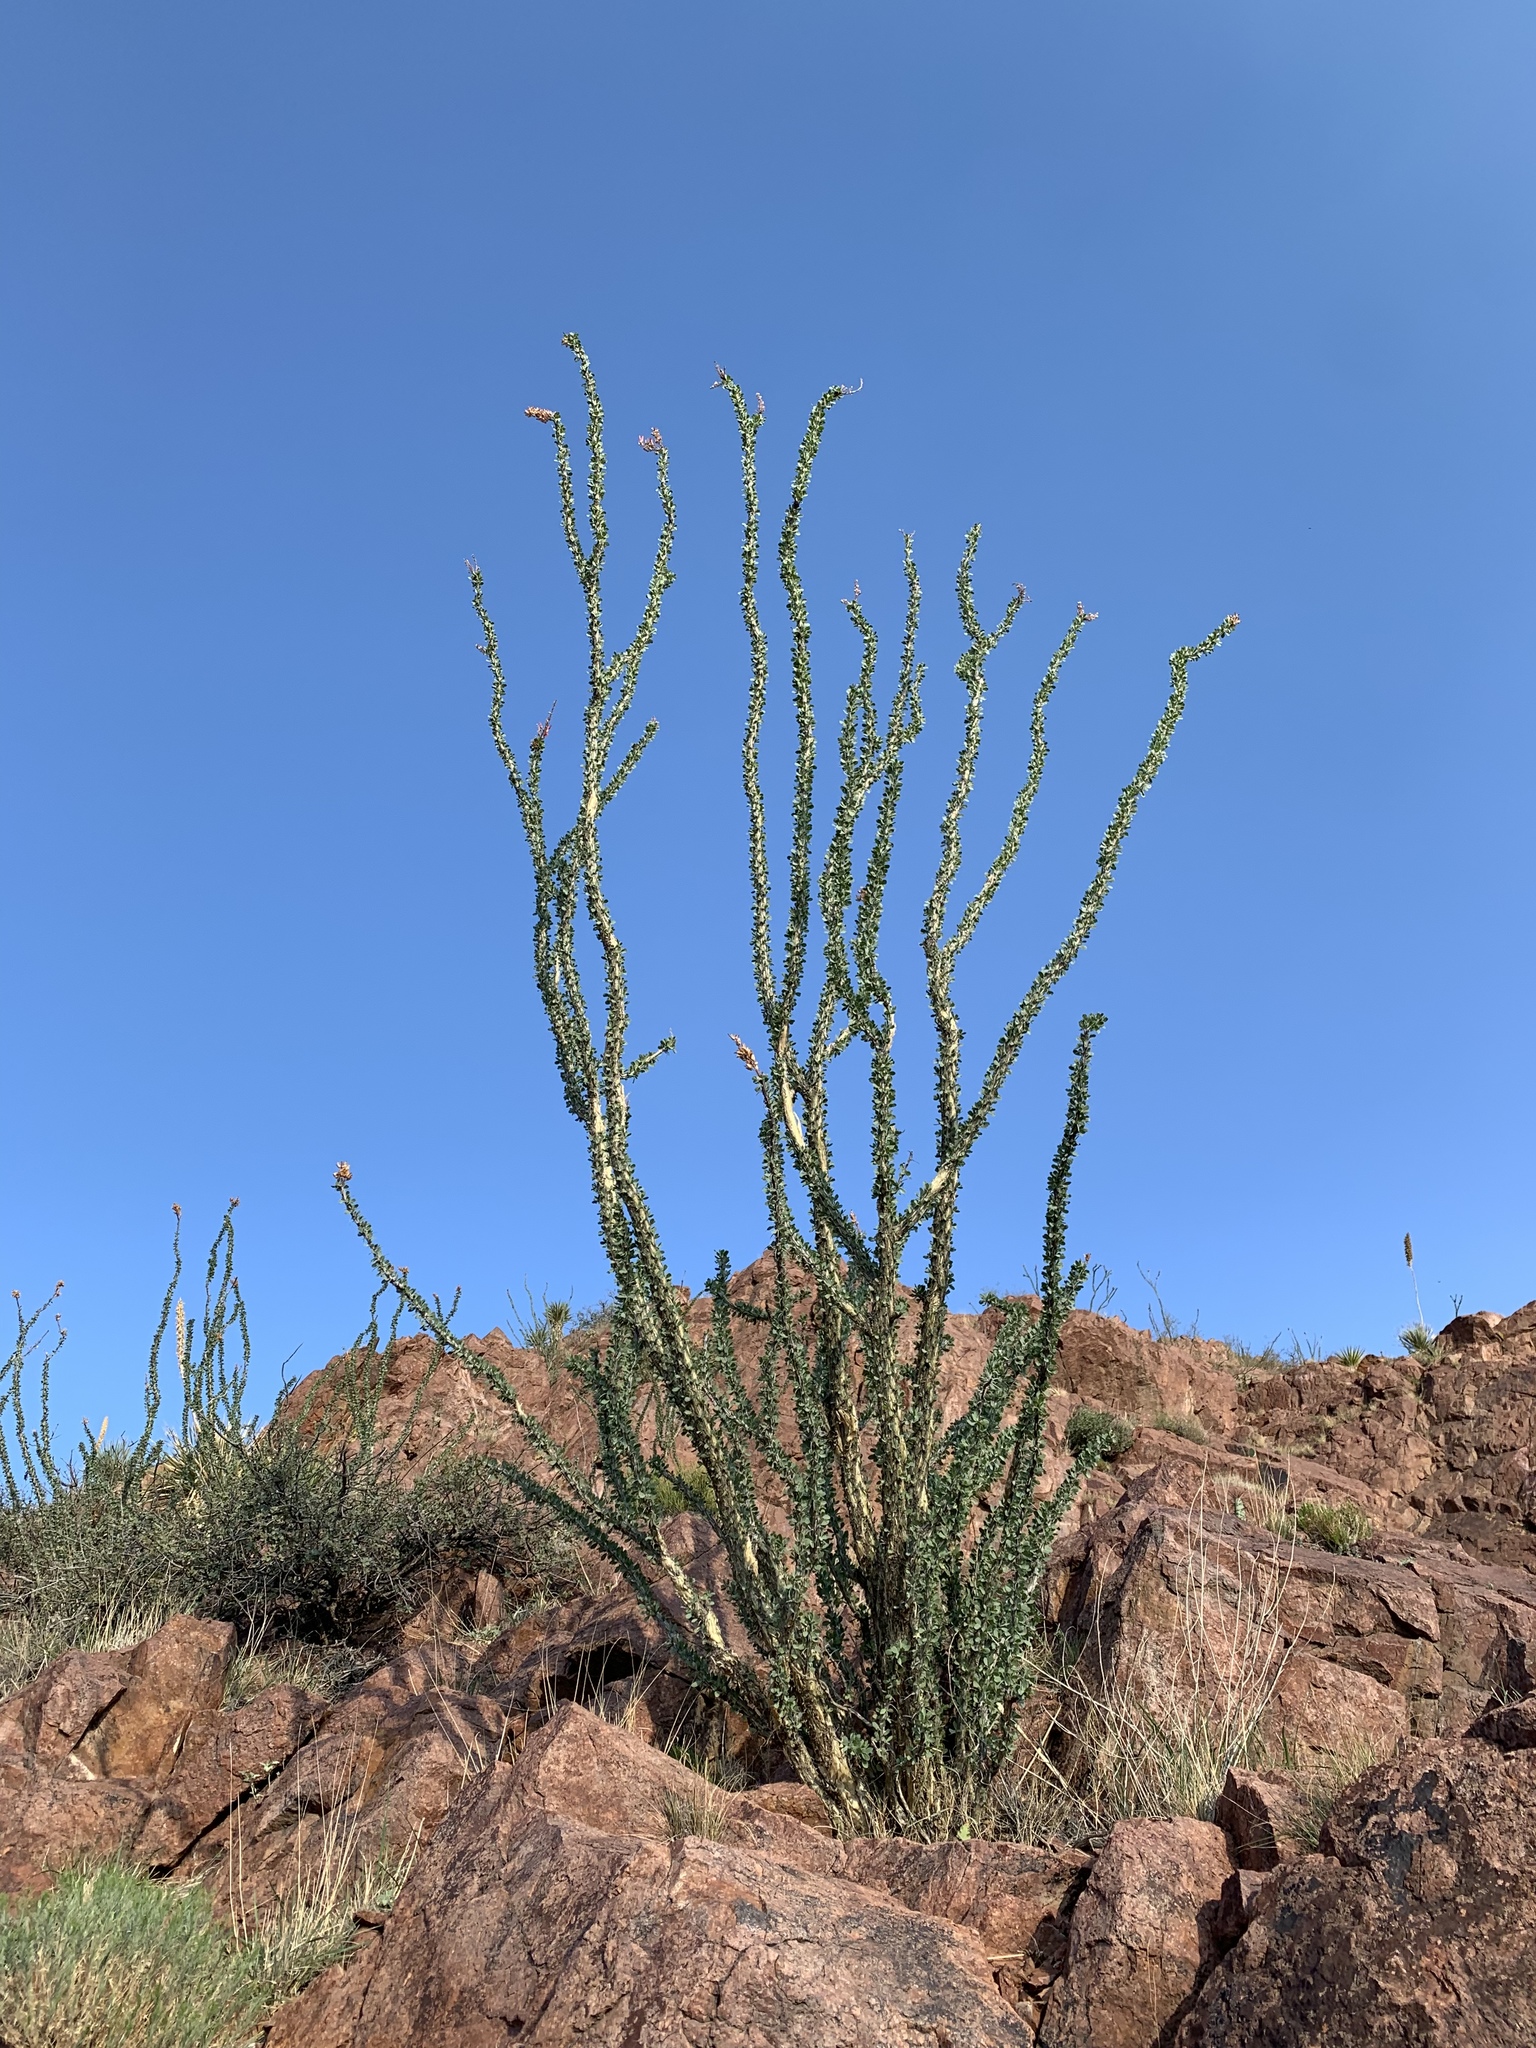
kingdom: Plantae
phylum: Tracheophyta
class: Magnoliopsida
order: Ericales
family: Fouquieriaceae
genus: Fouquieria
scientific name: Fouquieria splendens
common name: Vine-cactus
